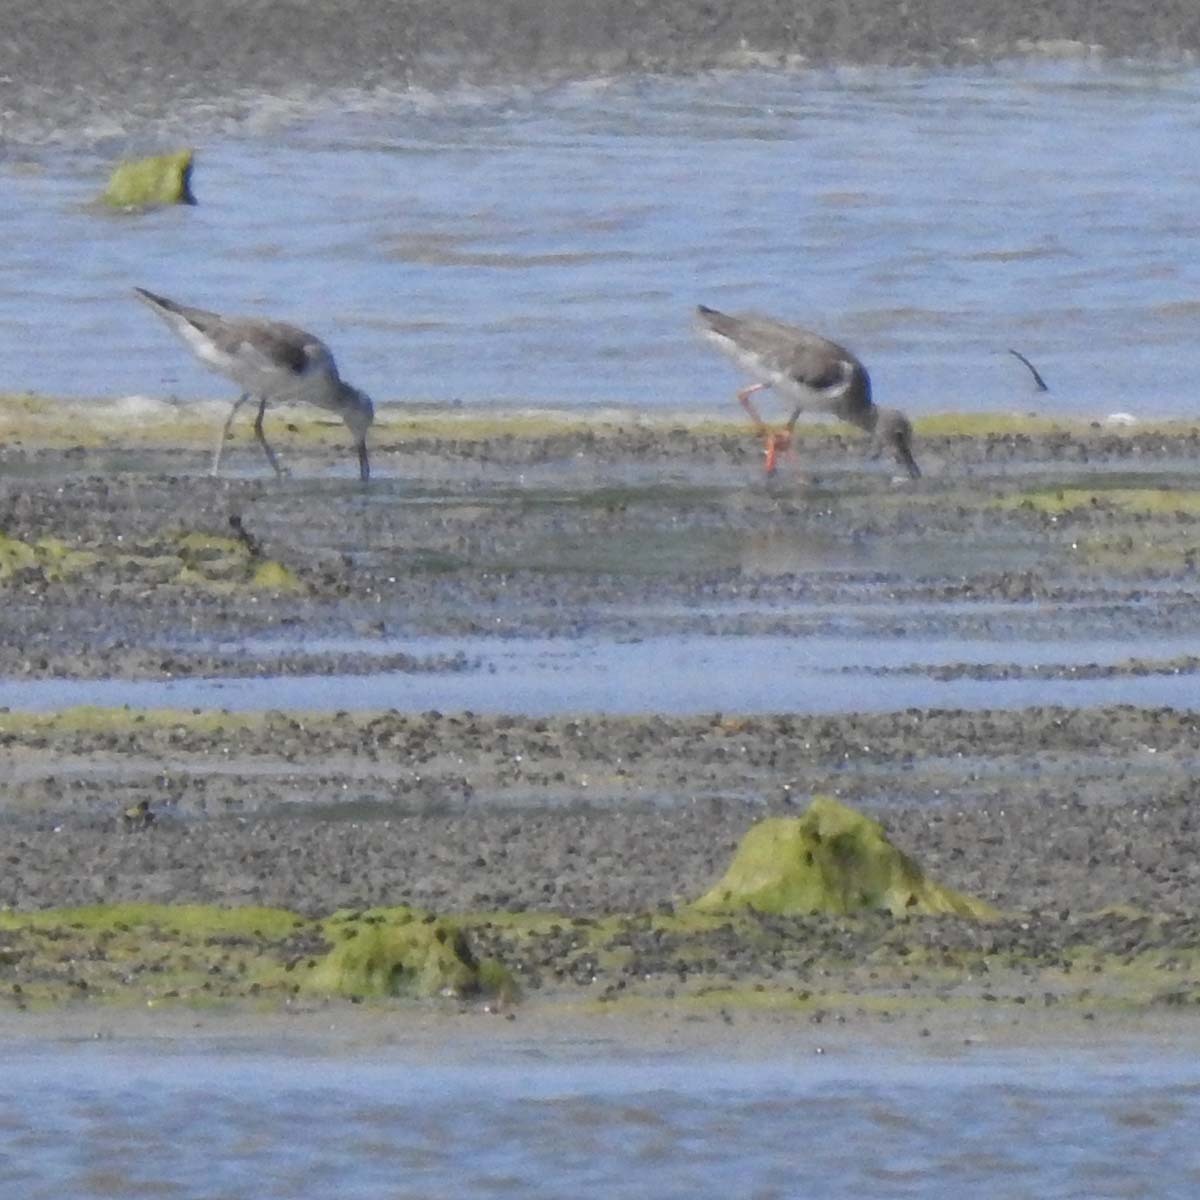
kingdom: Animalia
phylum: Chordata
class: Aves
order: Charadriiformes
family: Scolopacidae
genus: Tringa
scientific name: Tringa totanus
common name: Common redshank
